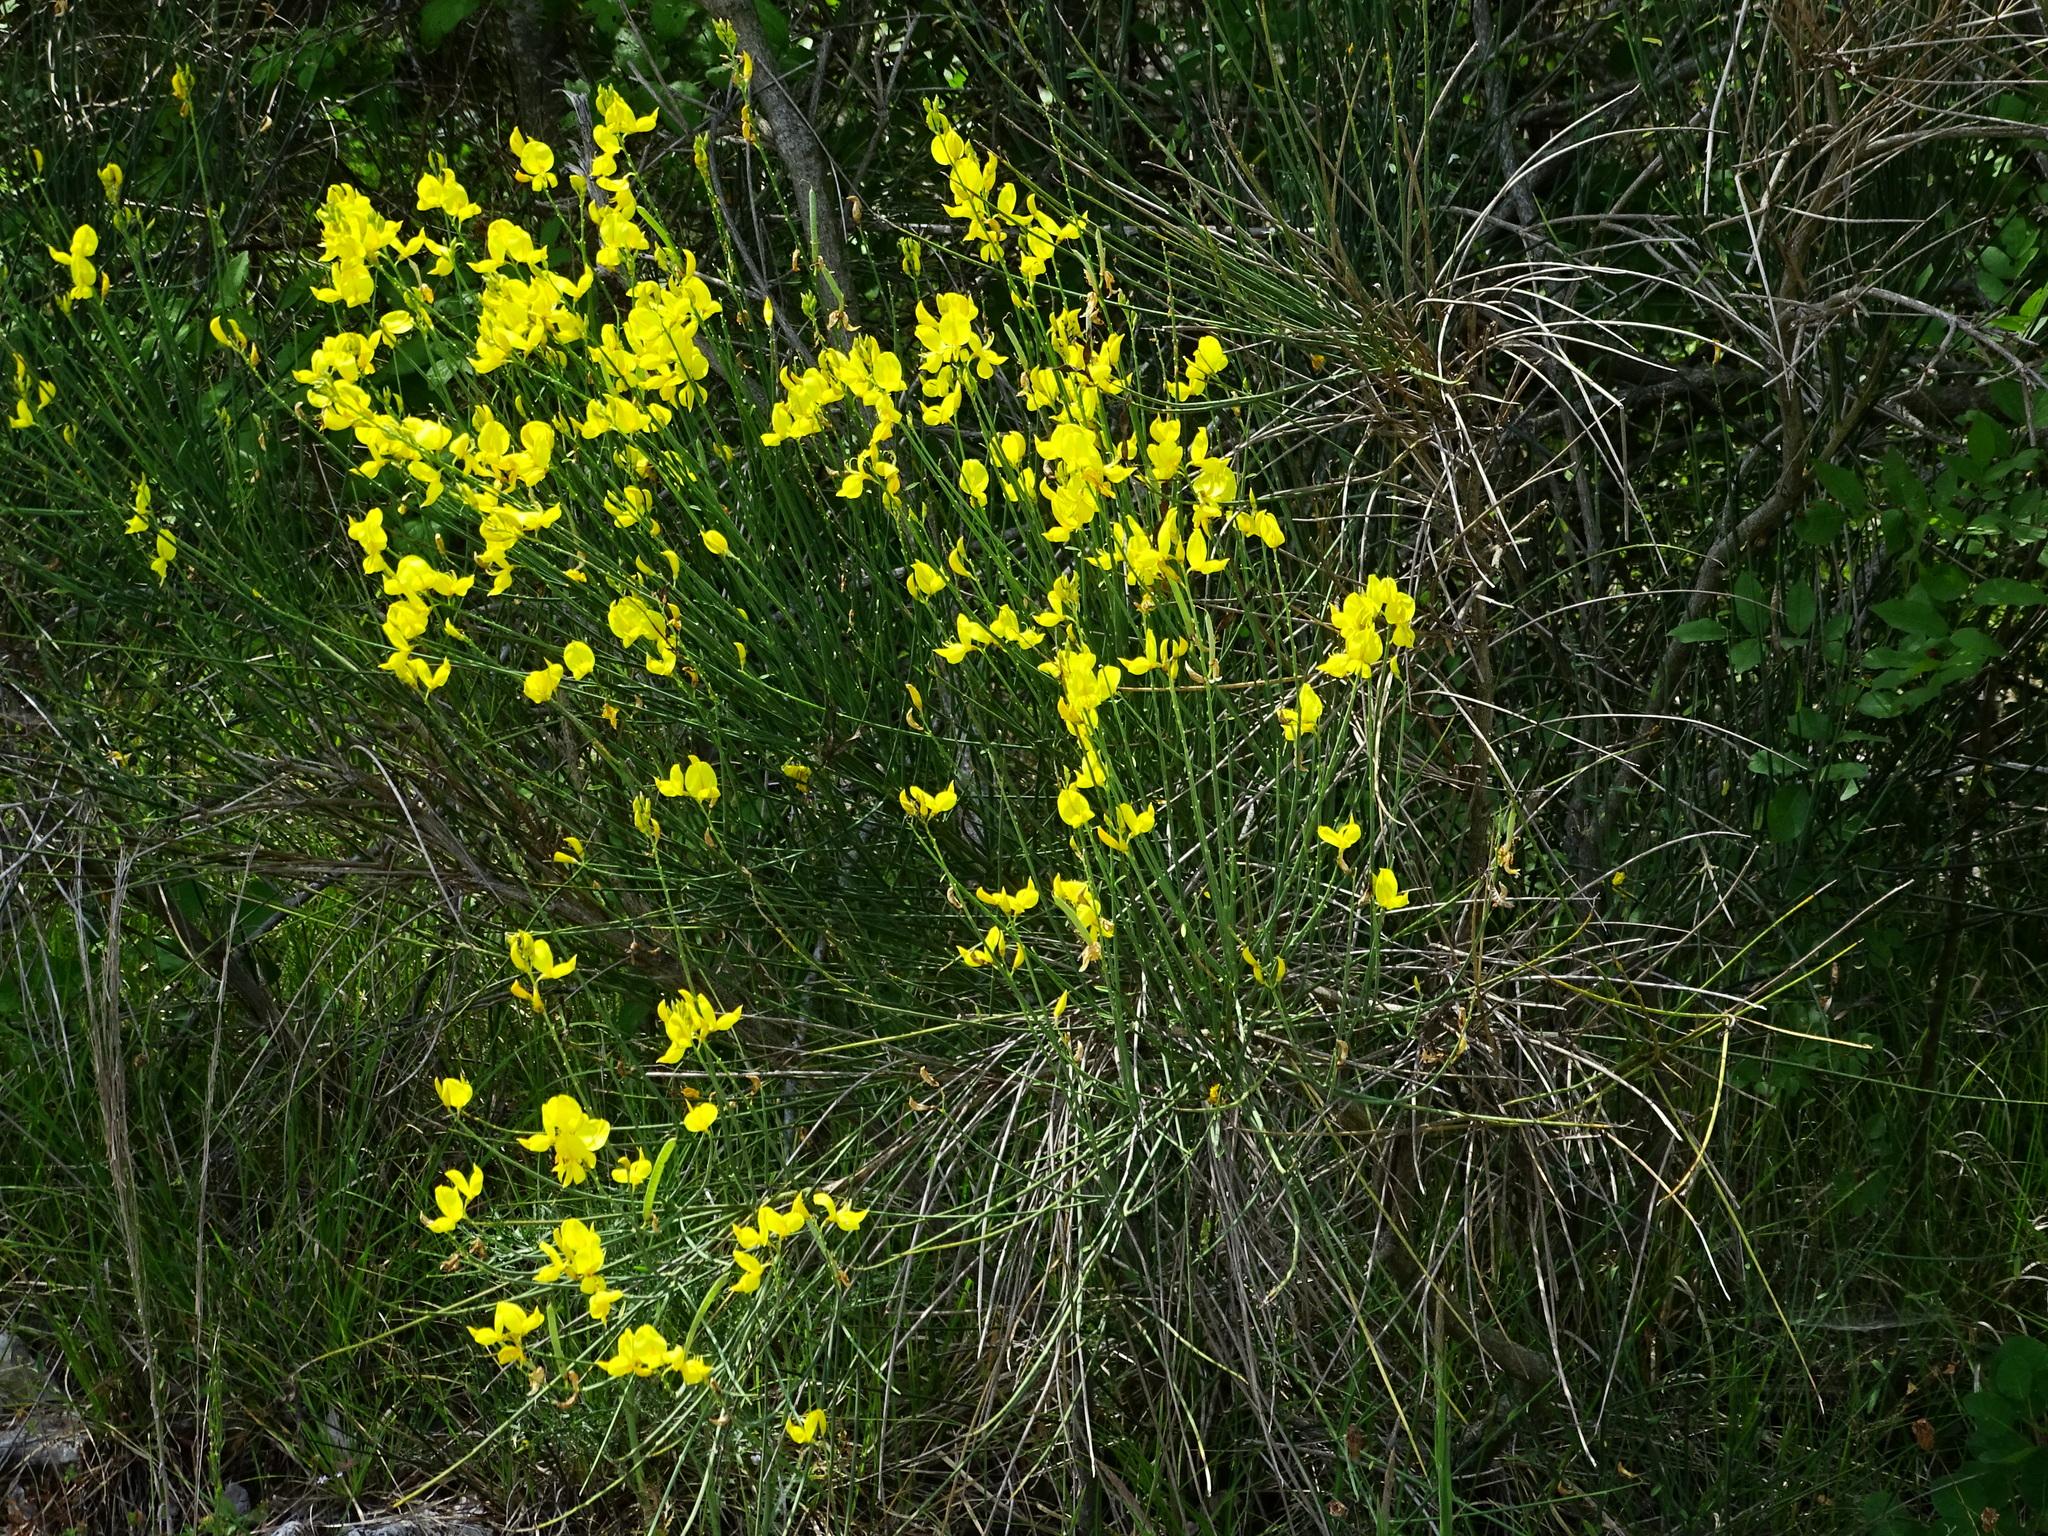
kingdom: Plantae
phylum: Tracheophyta
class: Magnoliopsida
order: Fabales
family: Fabaceae
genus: Spartium
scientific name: Spartium junceum
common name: Spanish broom
